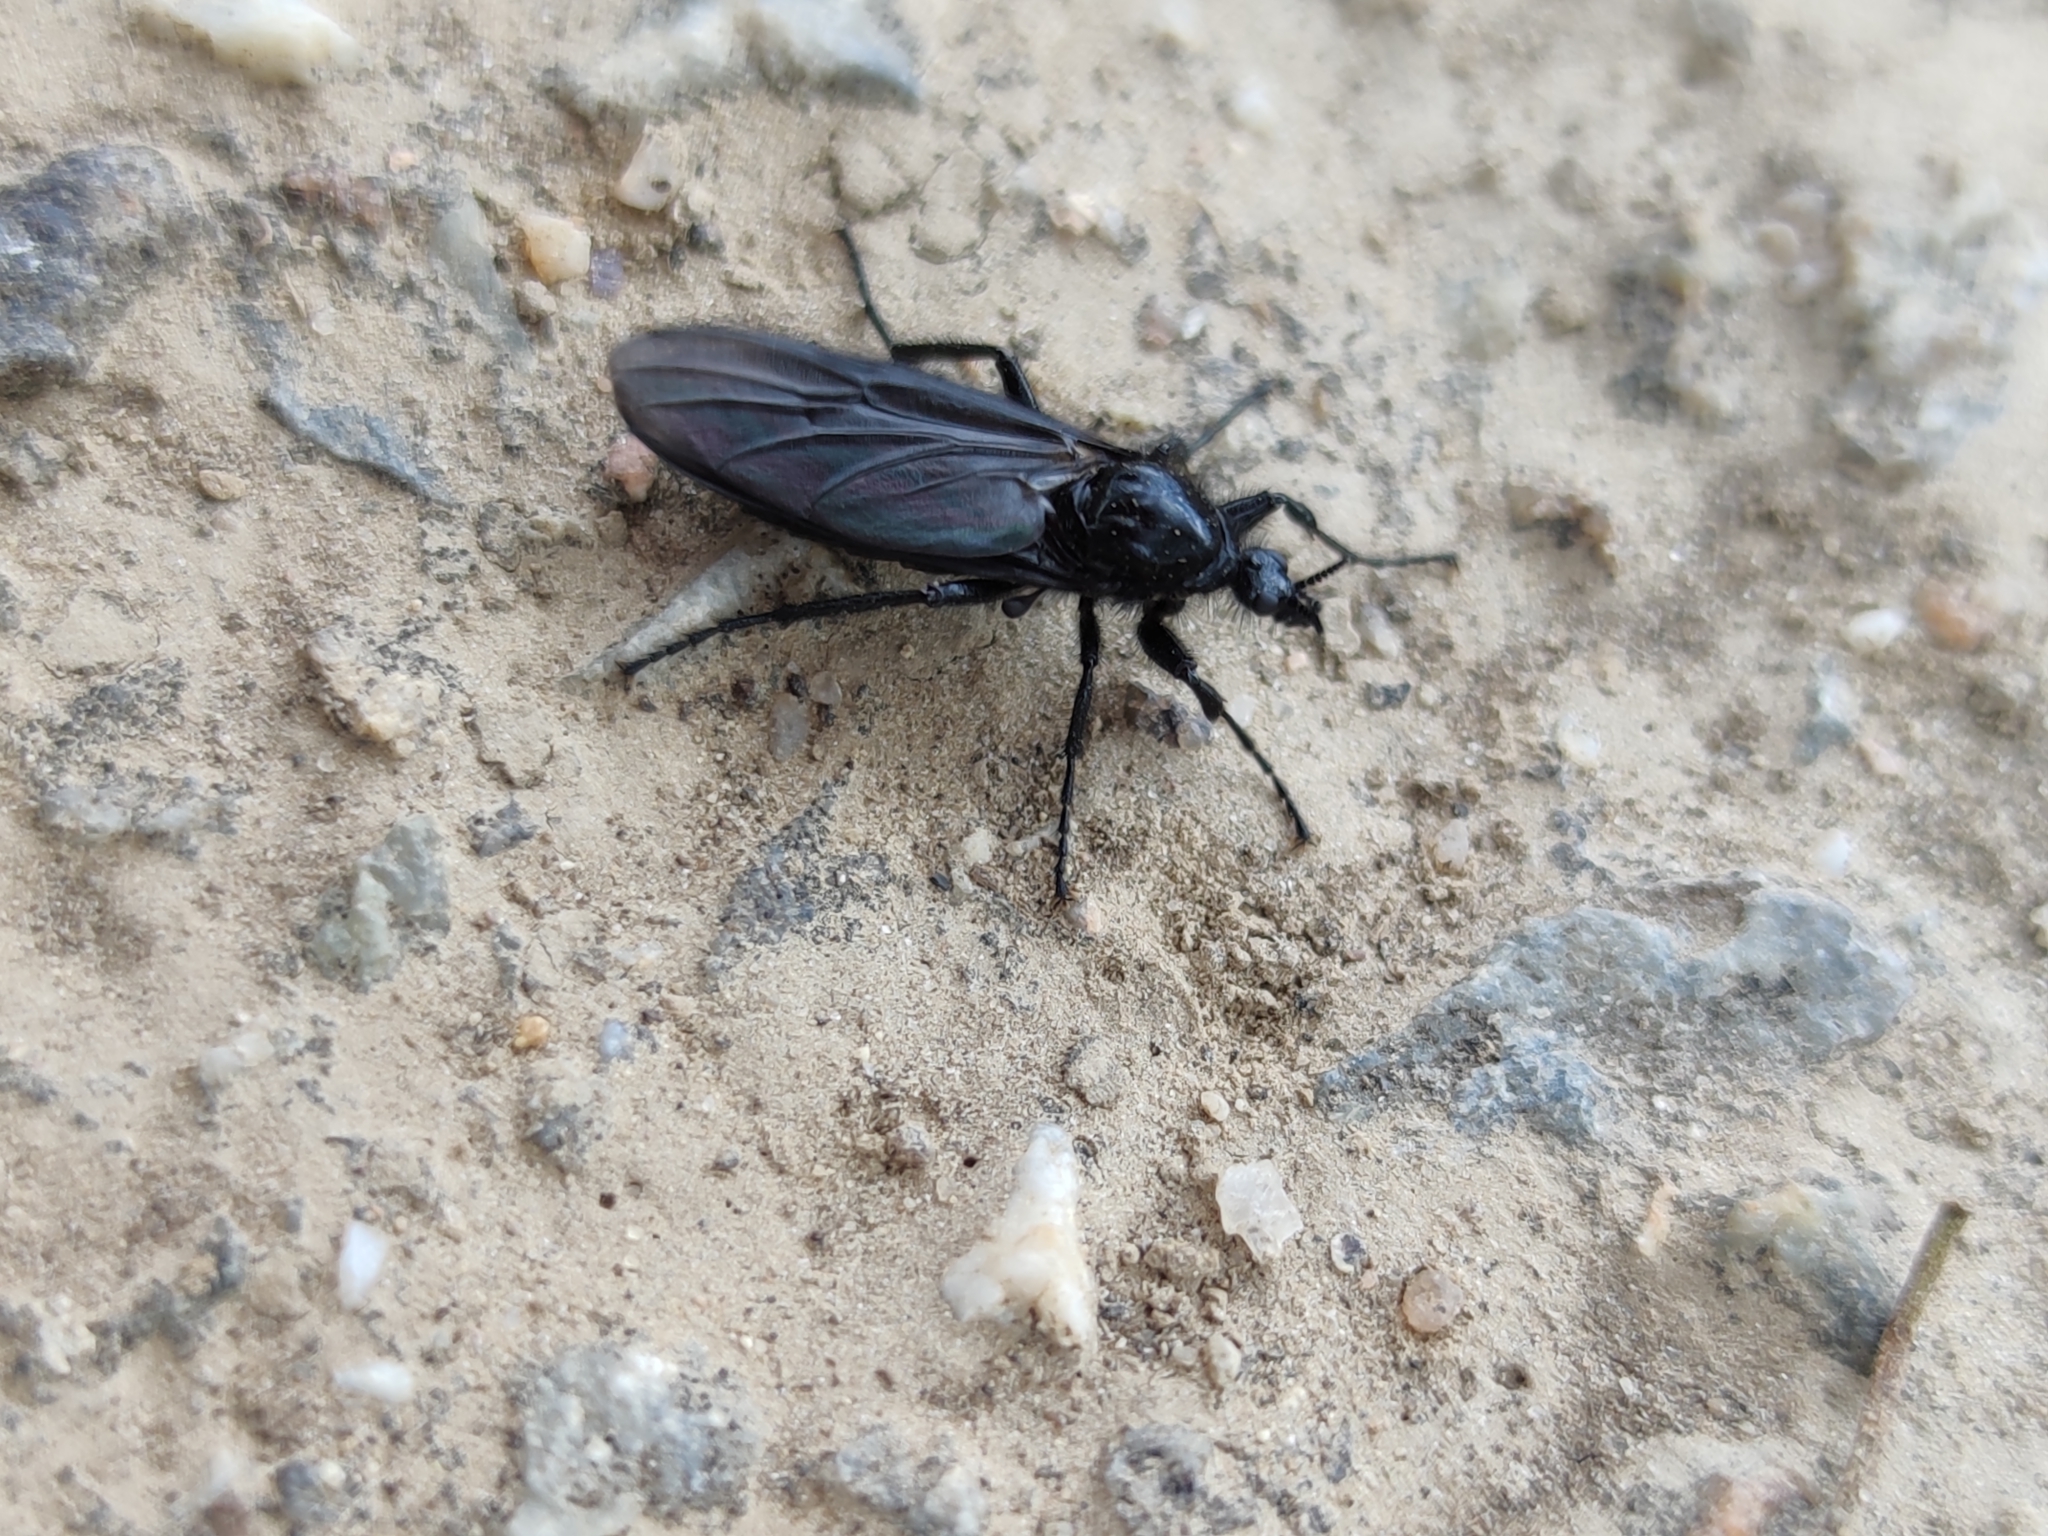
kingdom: Animalia
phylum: Arthropoda
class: Insecta
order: Diptera
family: Bibionidae
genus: Bibio
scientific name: Bibio marci
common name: St marks fly
